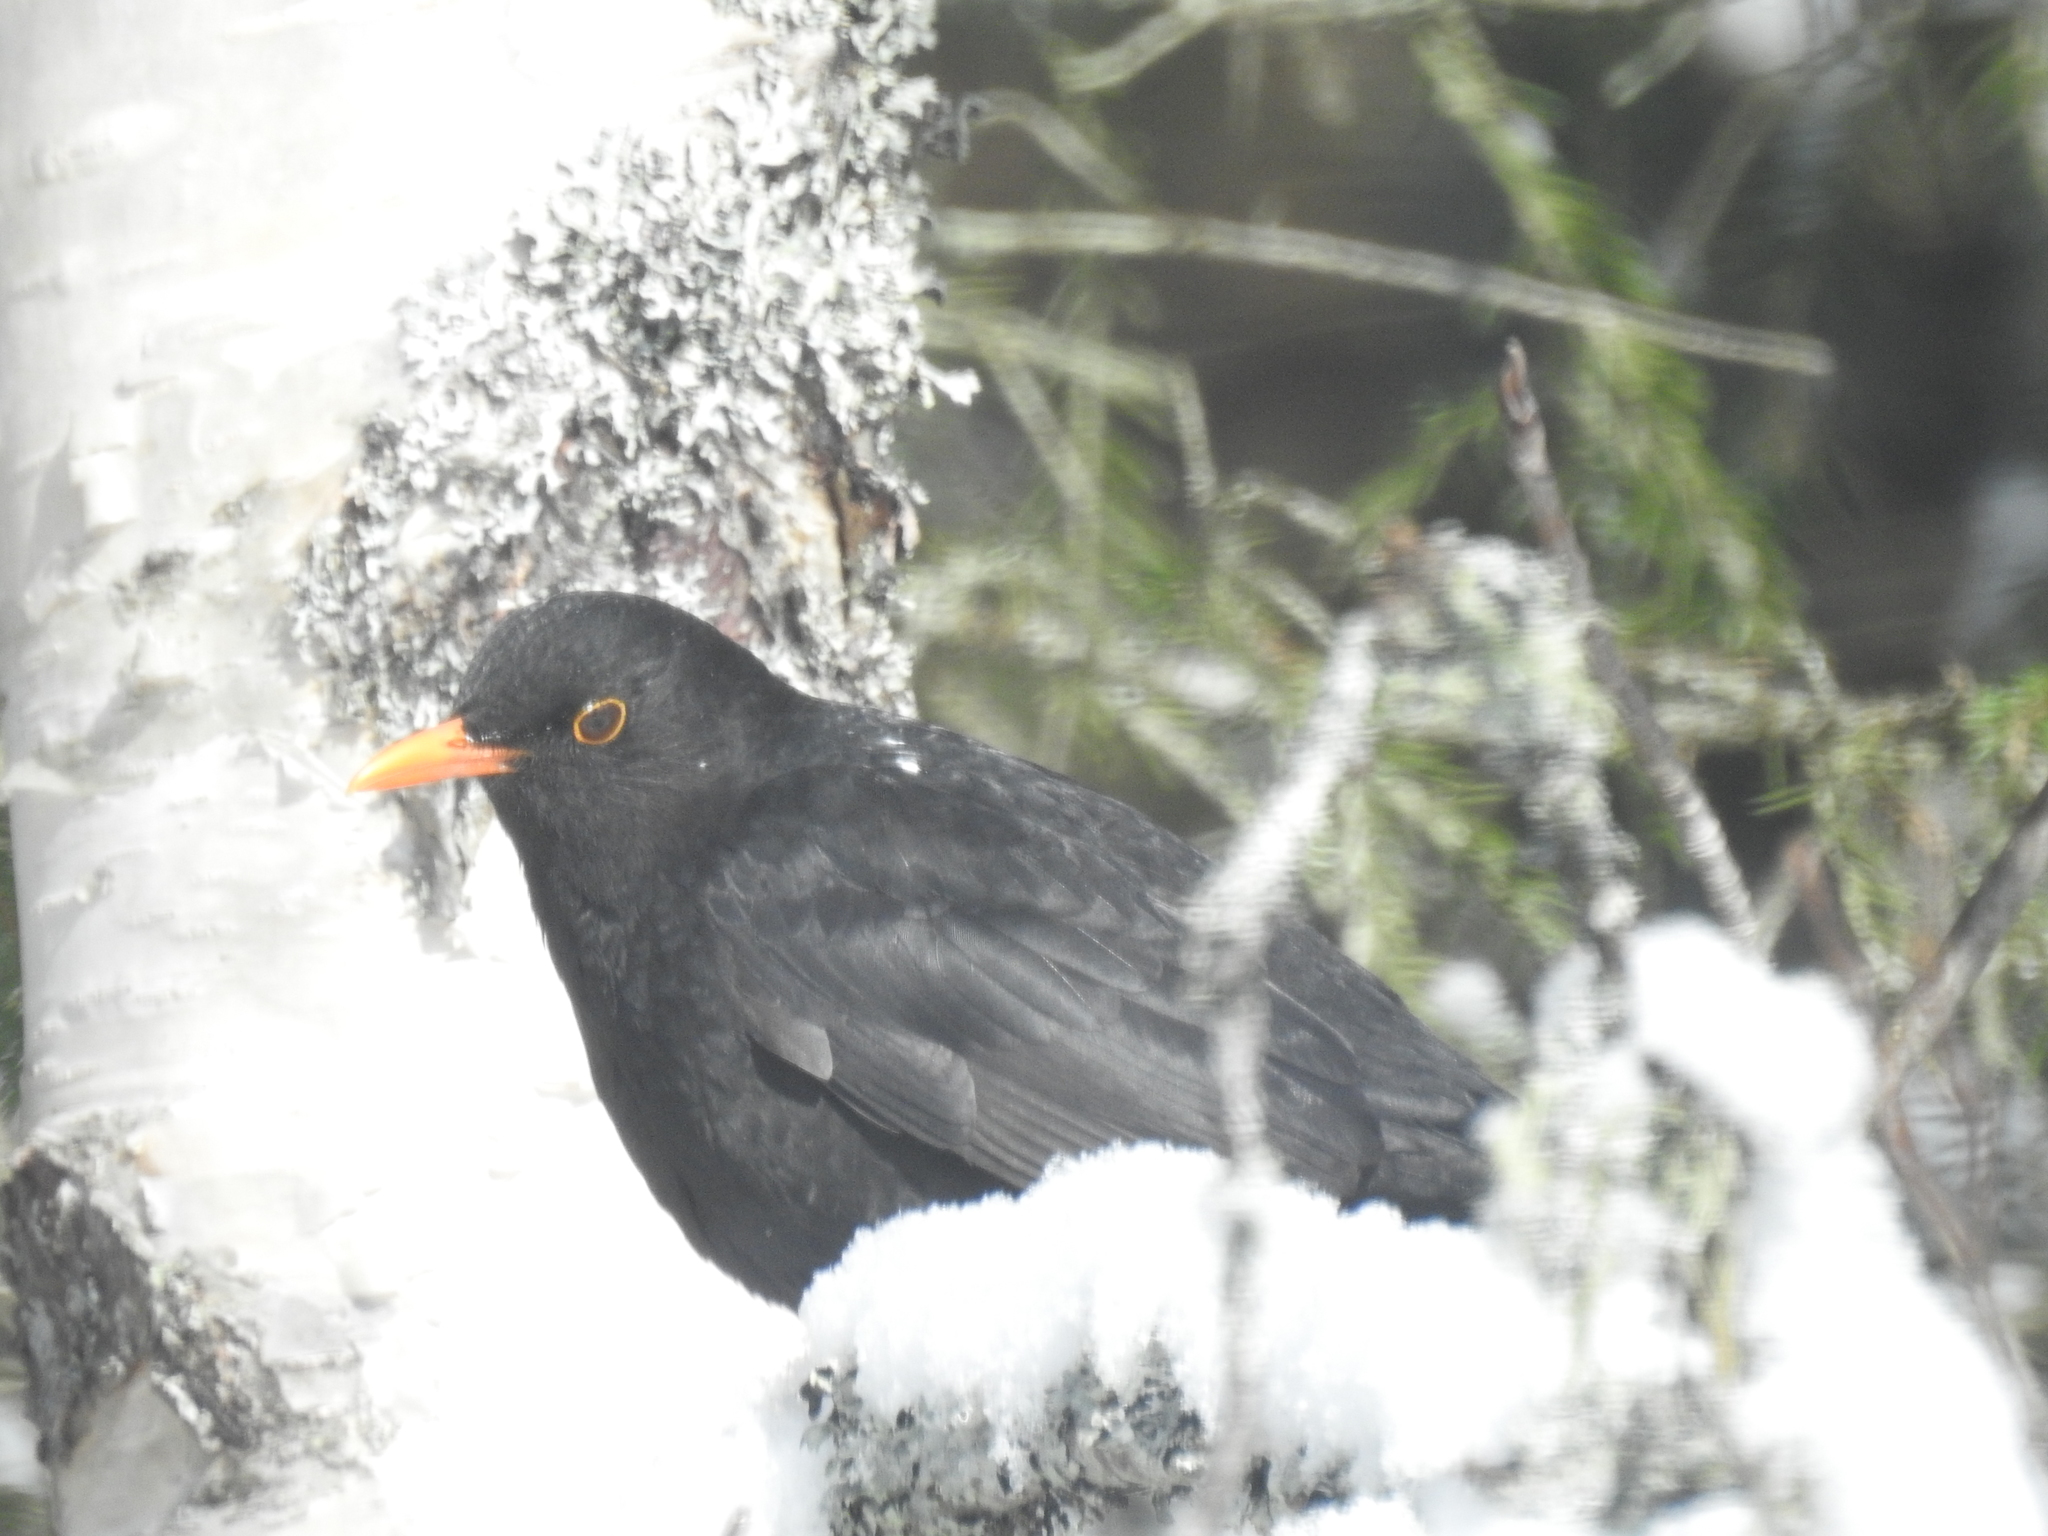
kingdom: Animalia
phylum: Chordata
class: Aves
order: Passeriformes
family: Turdidae
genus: Turdus
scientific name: Turdus merula
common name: Common blackbird
